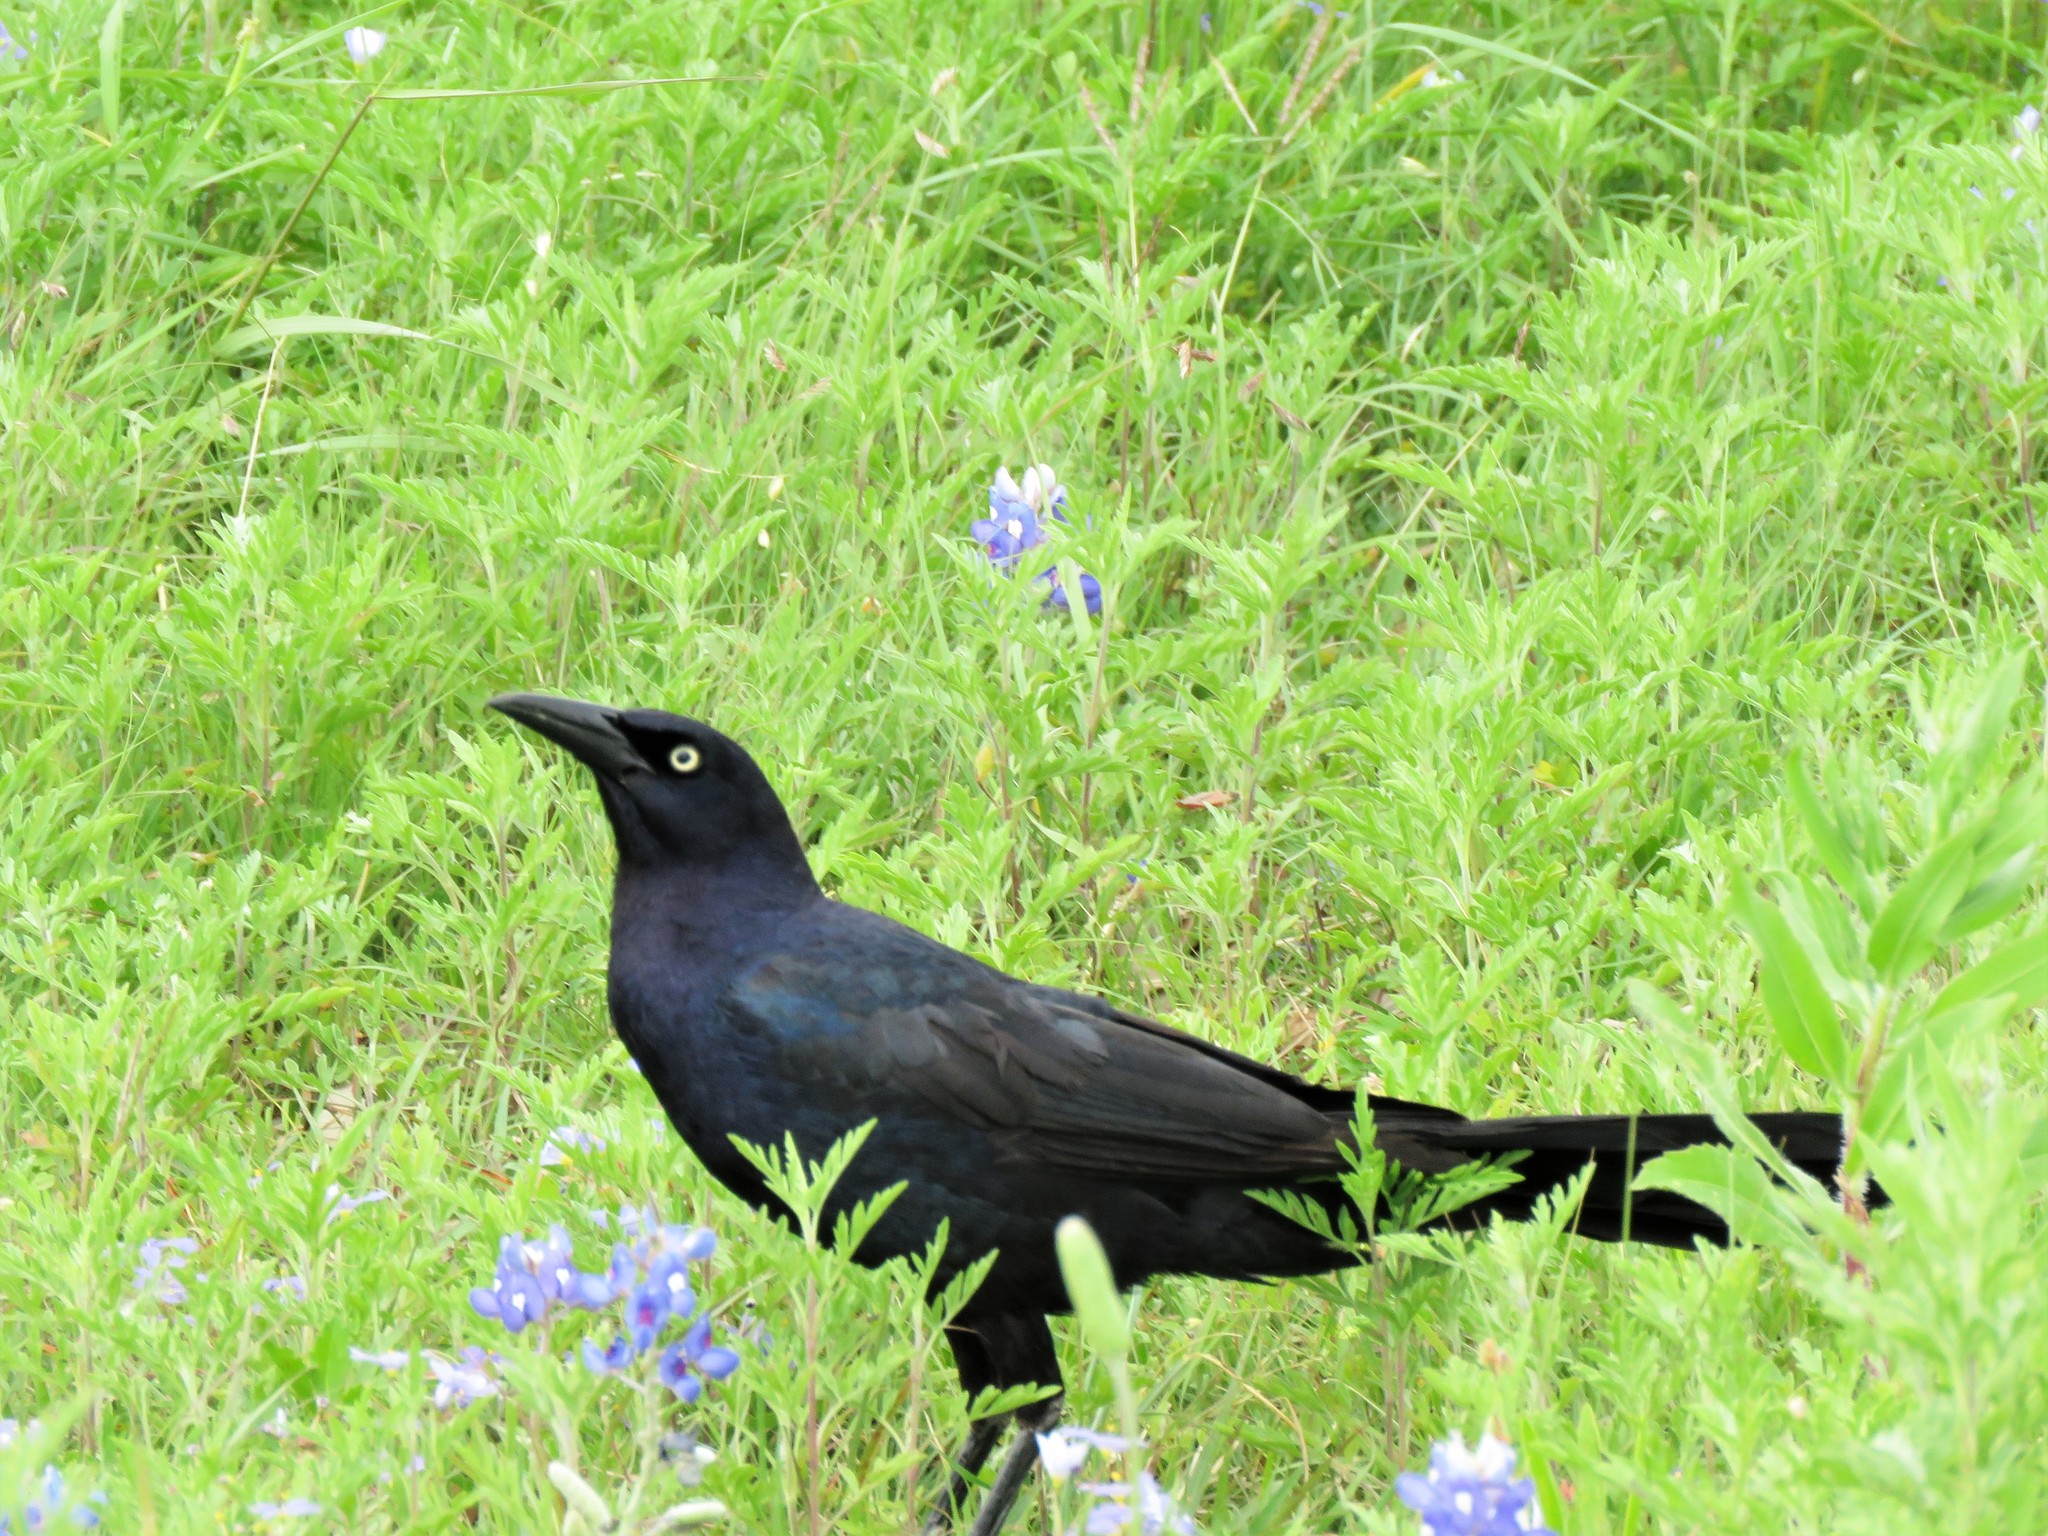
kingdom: Animalia
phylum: Chordata
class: Aves
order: Passeriformes
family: Icteridae
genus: Quiscalus
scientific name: Quiscalus mexicanus
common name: Great-tailed grackle
